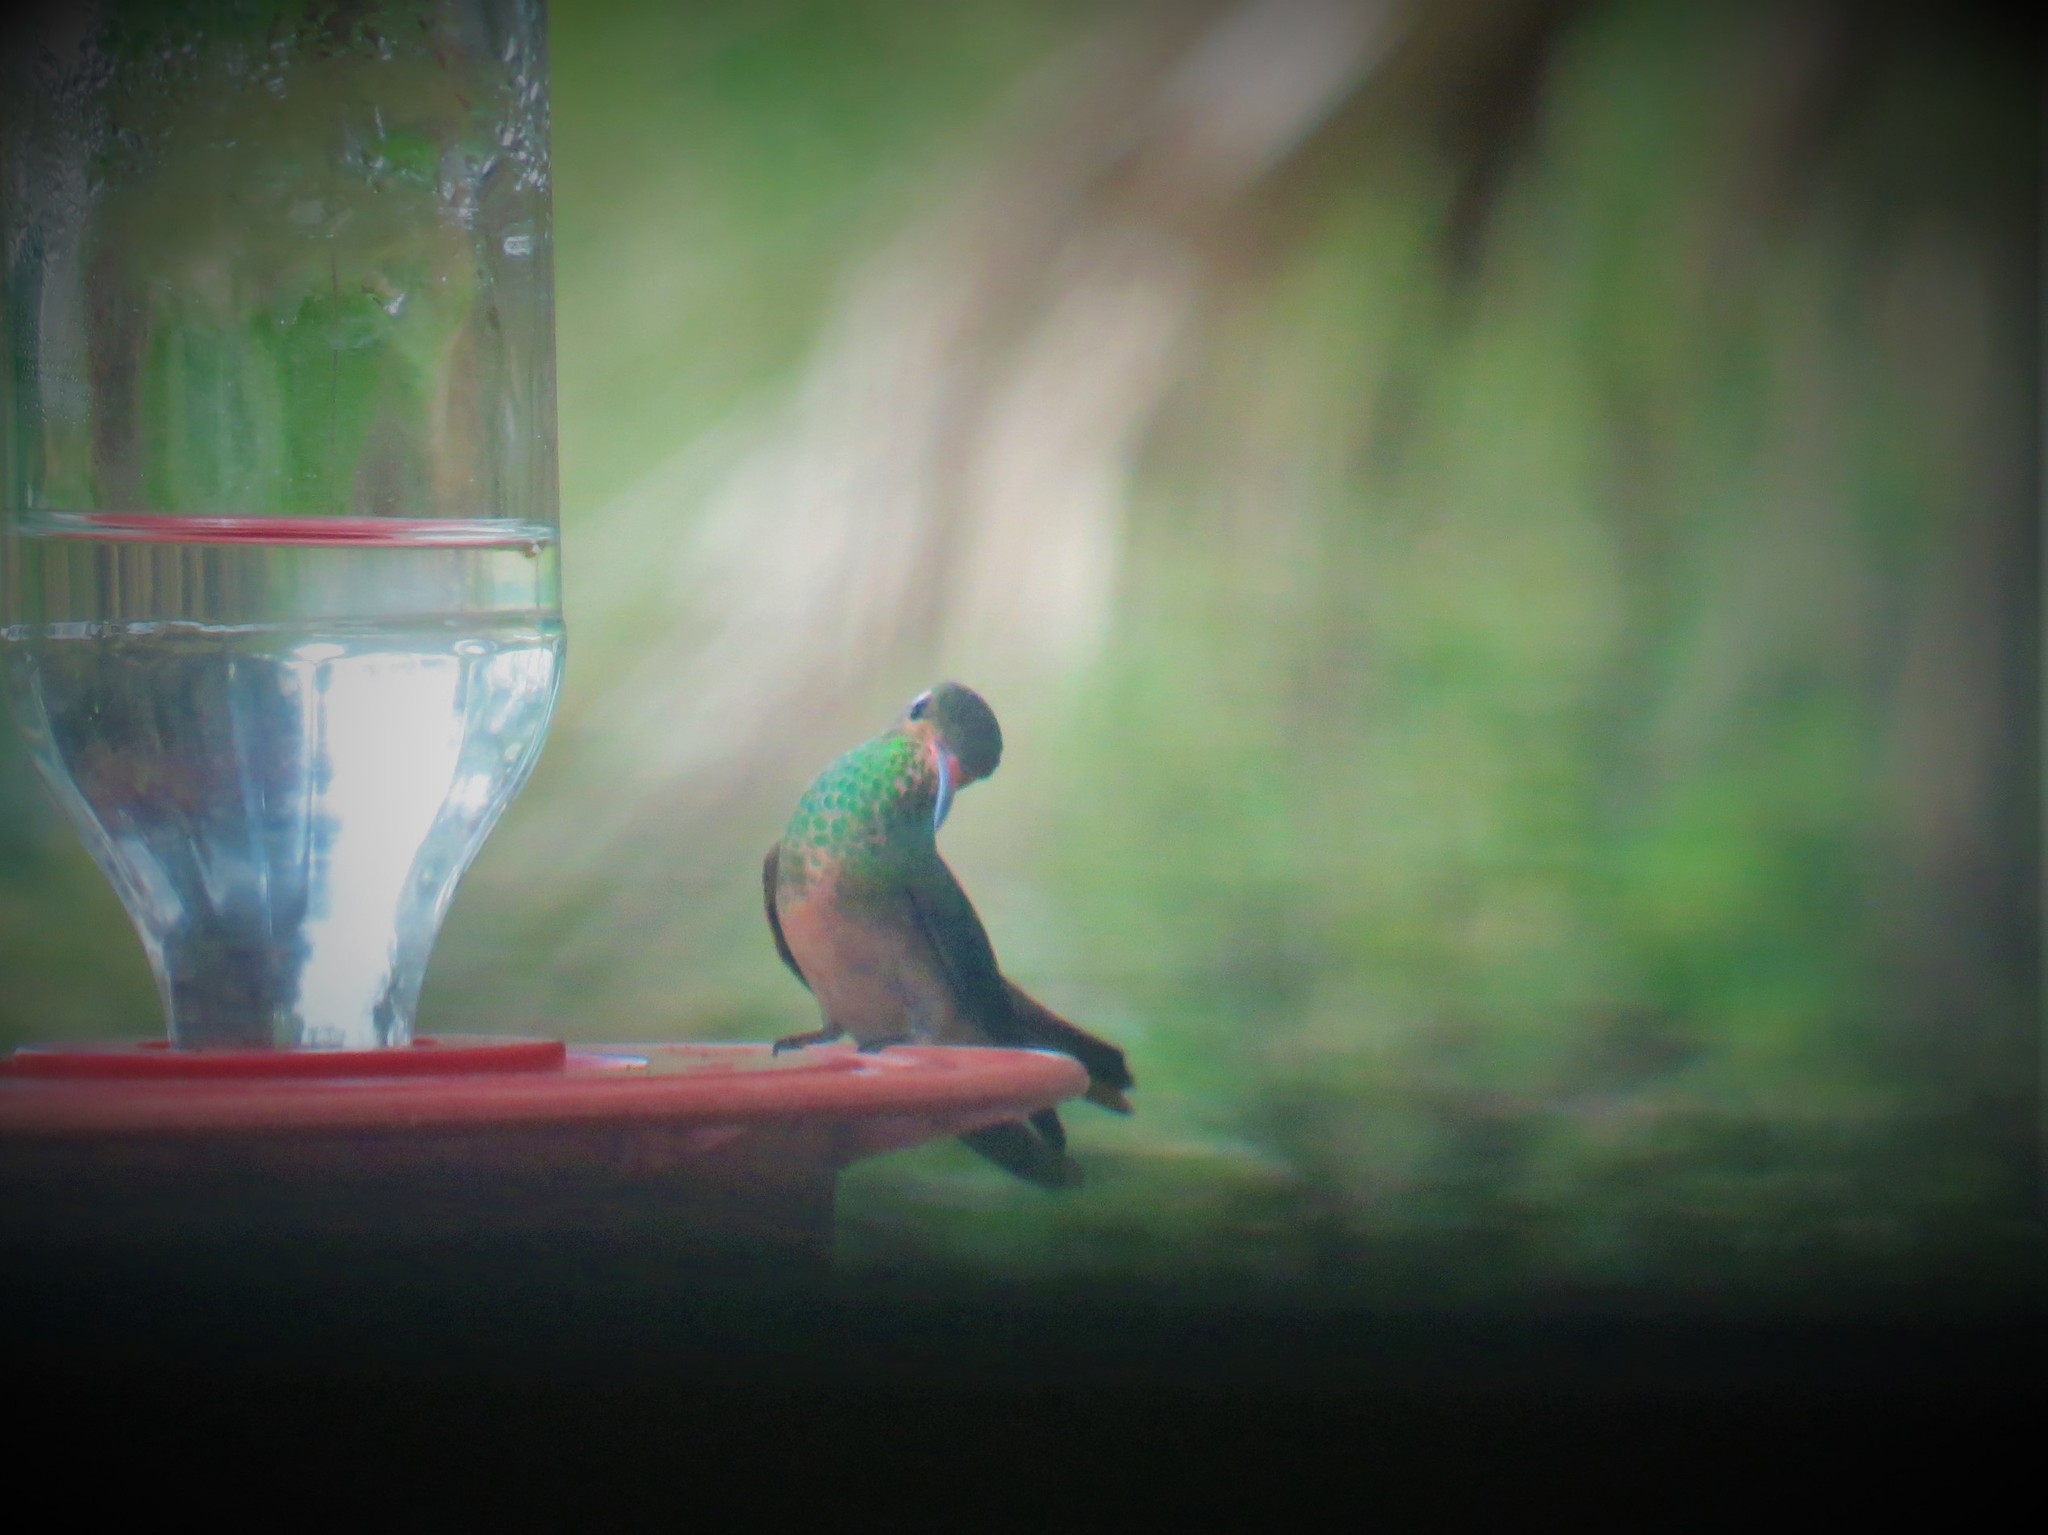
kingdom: Animalia
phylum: Chordata
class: Aves
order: Apodiformes
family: Trochilidae
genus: Amazilia
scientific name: Amazilia yucatanensis
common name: Buff-bellied hummingbird
